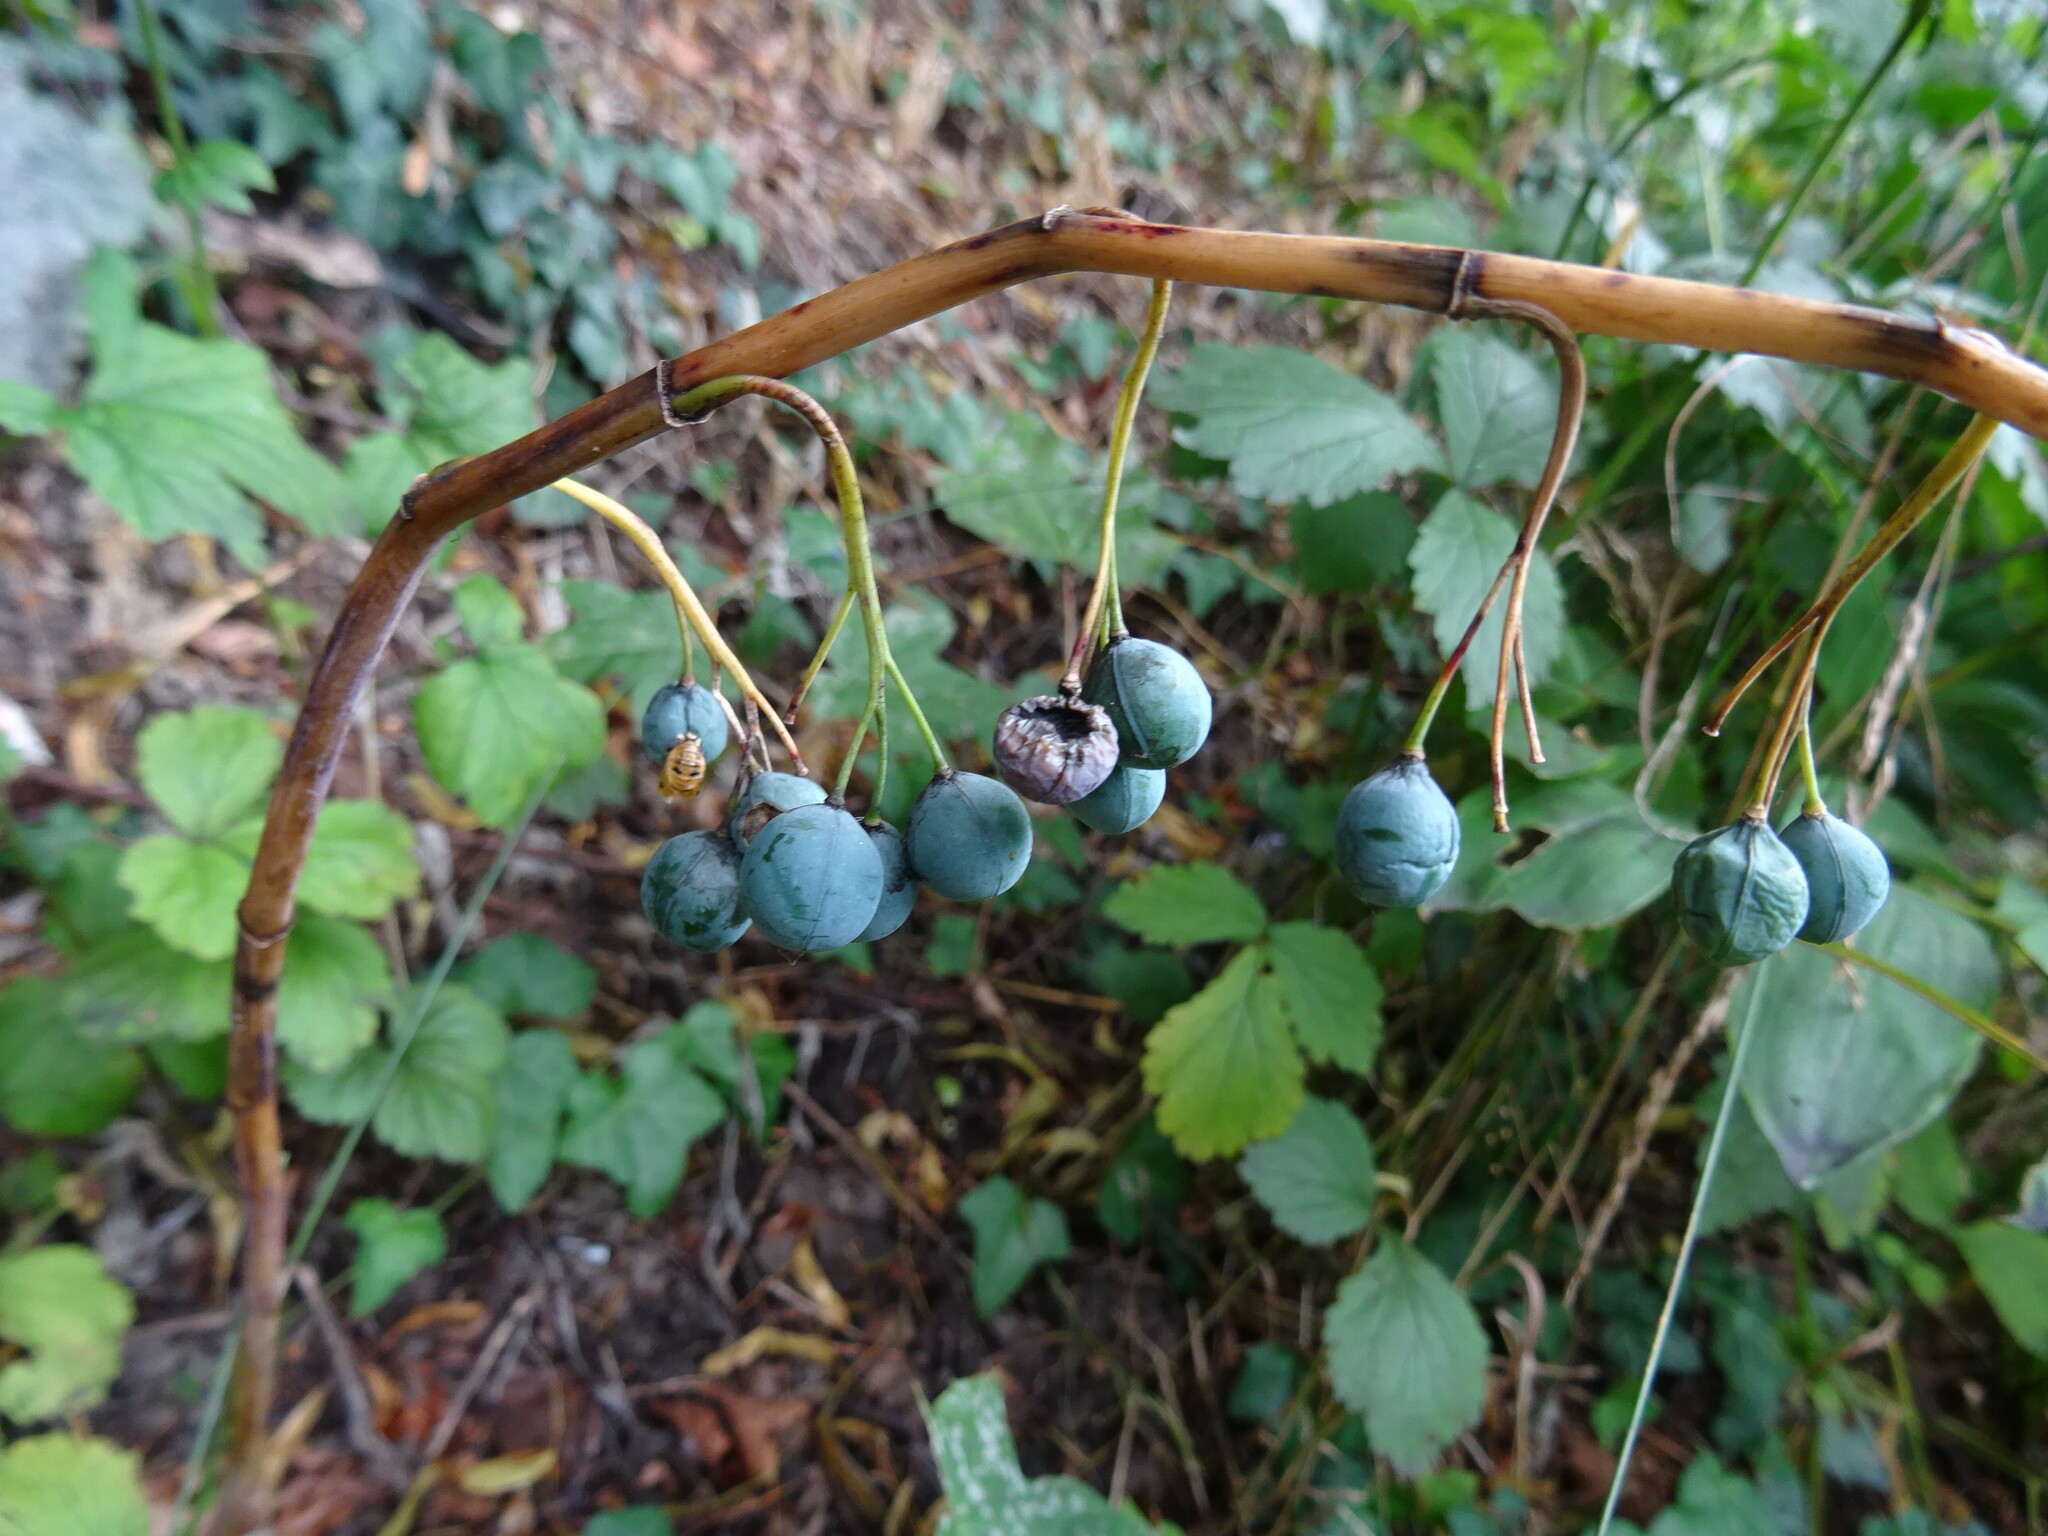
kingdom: Plantae
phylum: Tracheophyta
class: Liliopsida
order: Asparagales
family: Asparagaceae
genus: Polygonatum
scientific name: Polygonatum multiflorum
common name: Solomon's-seal
